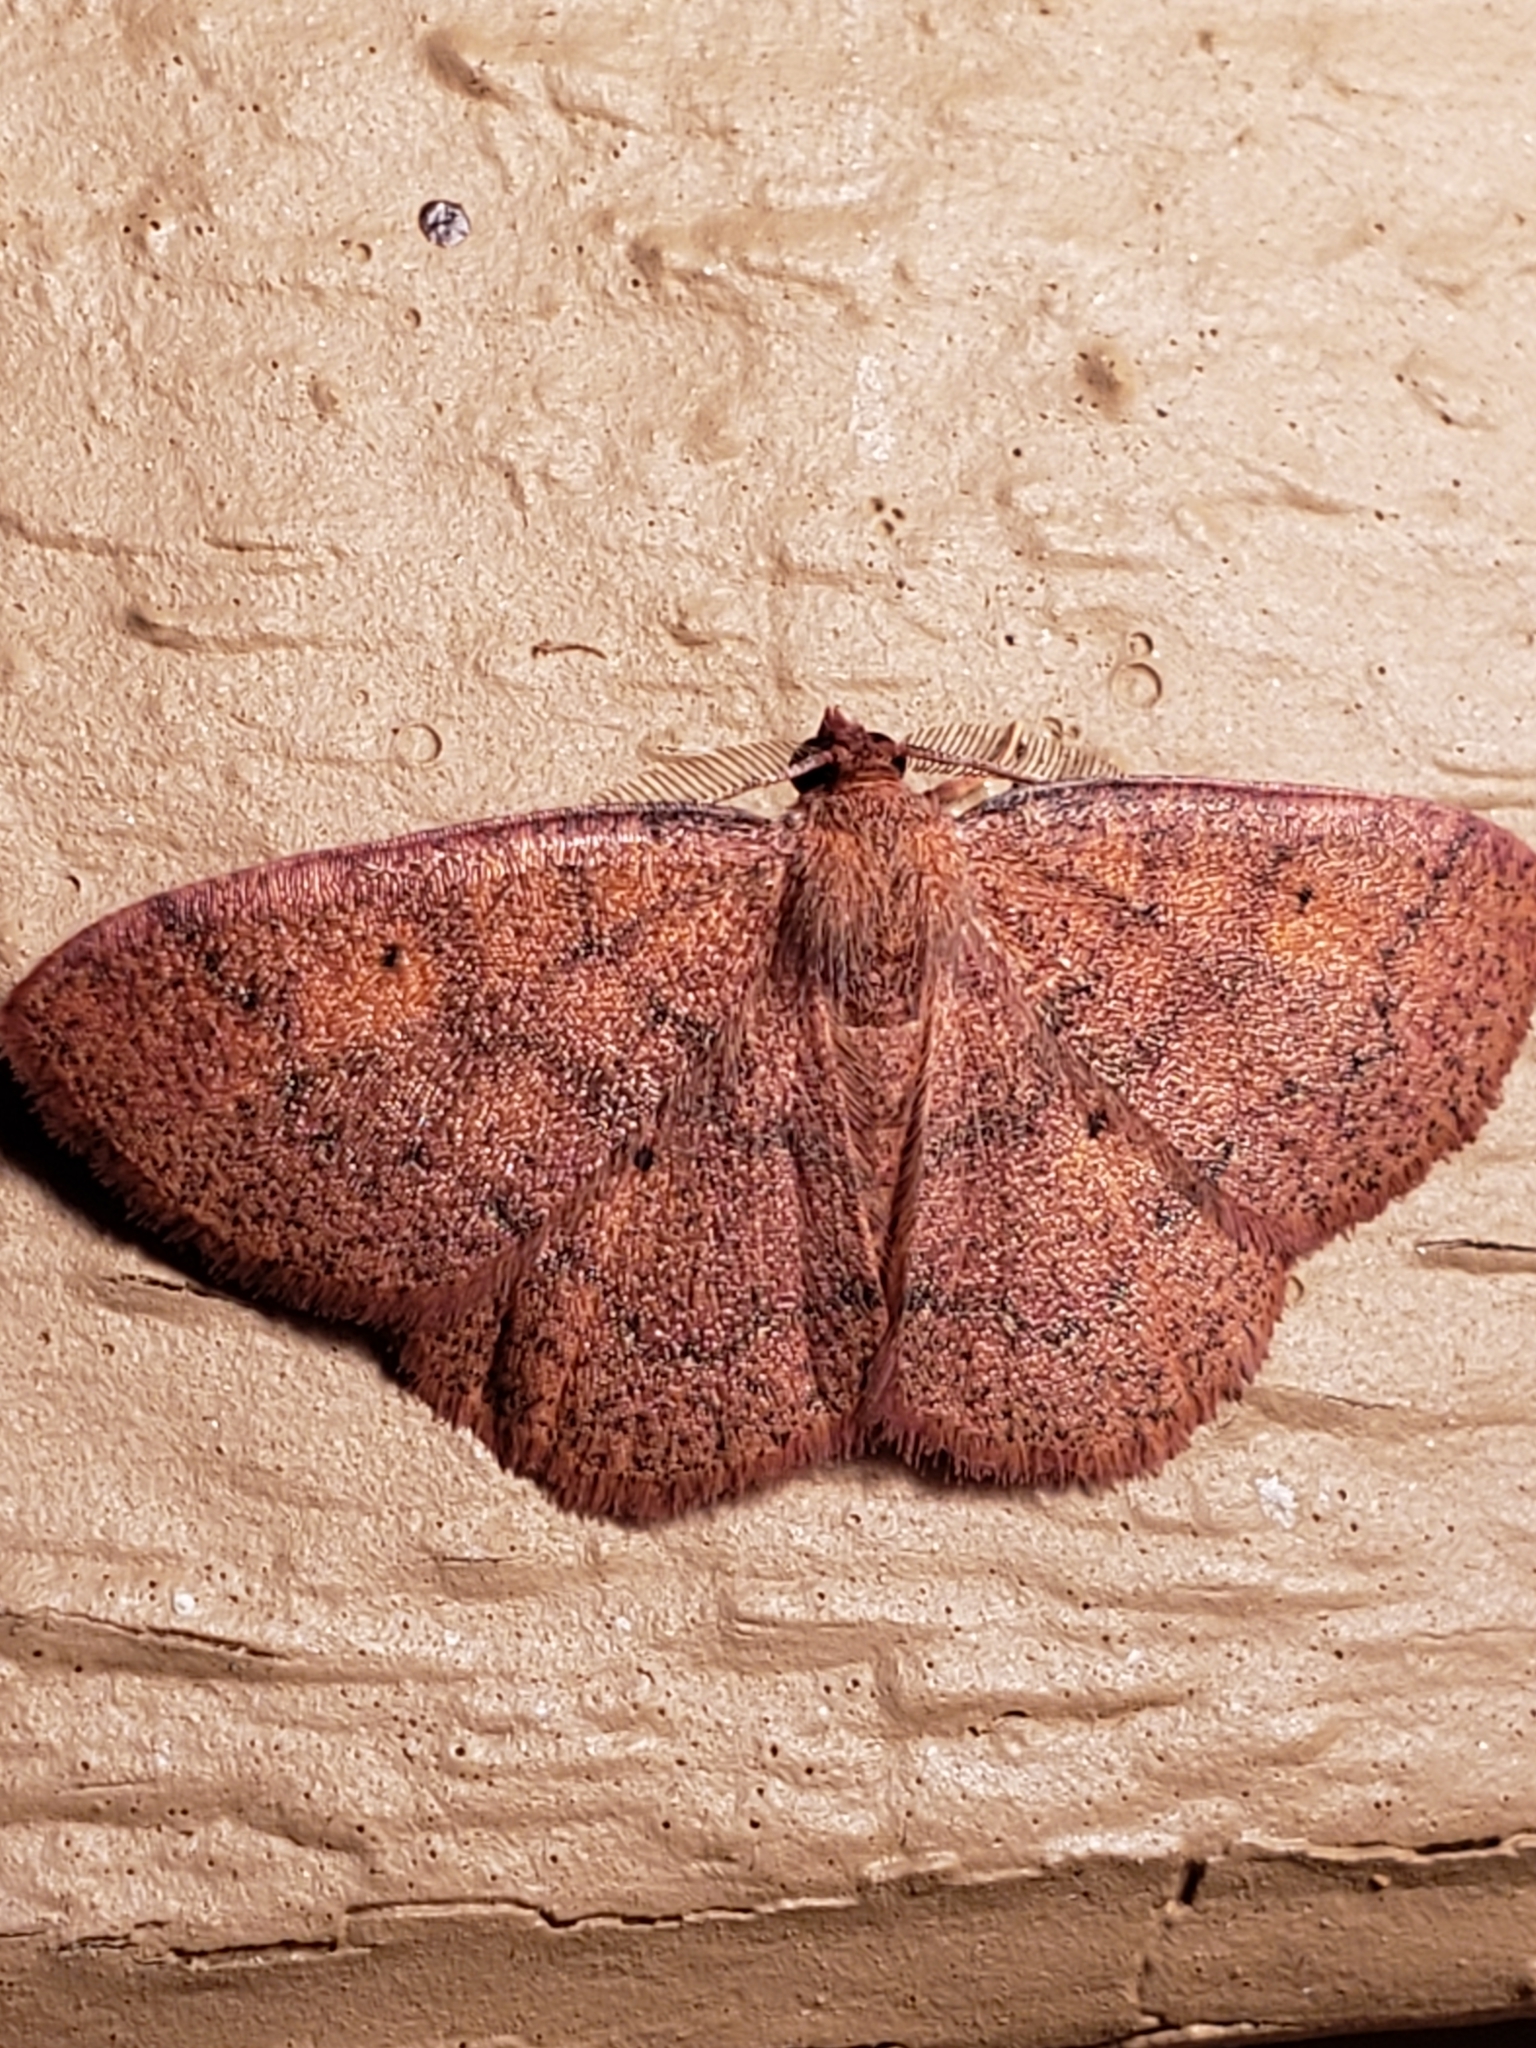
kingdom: Animalia
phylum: Arthropoda
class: Insecta
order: Lepidoptera
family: Geometridae
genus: Ilexia
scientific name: Ilexia intractata
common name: Black-dotted ruddy moth
